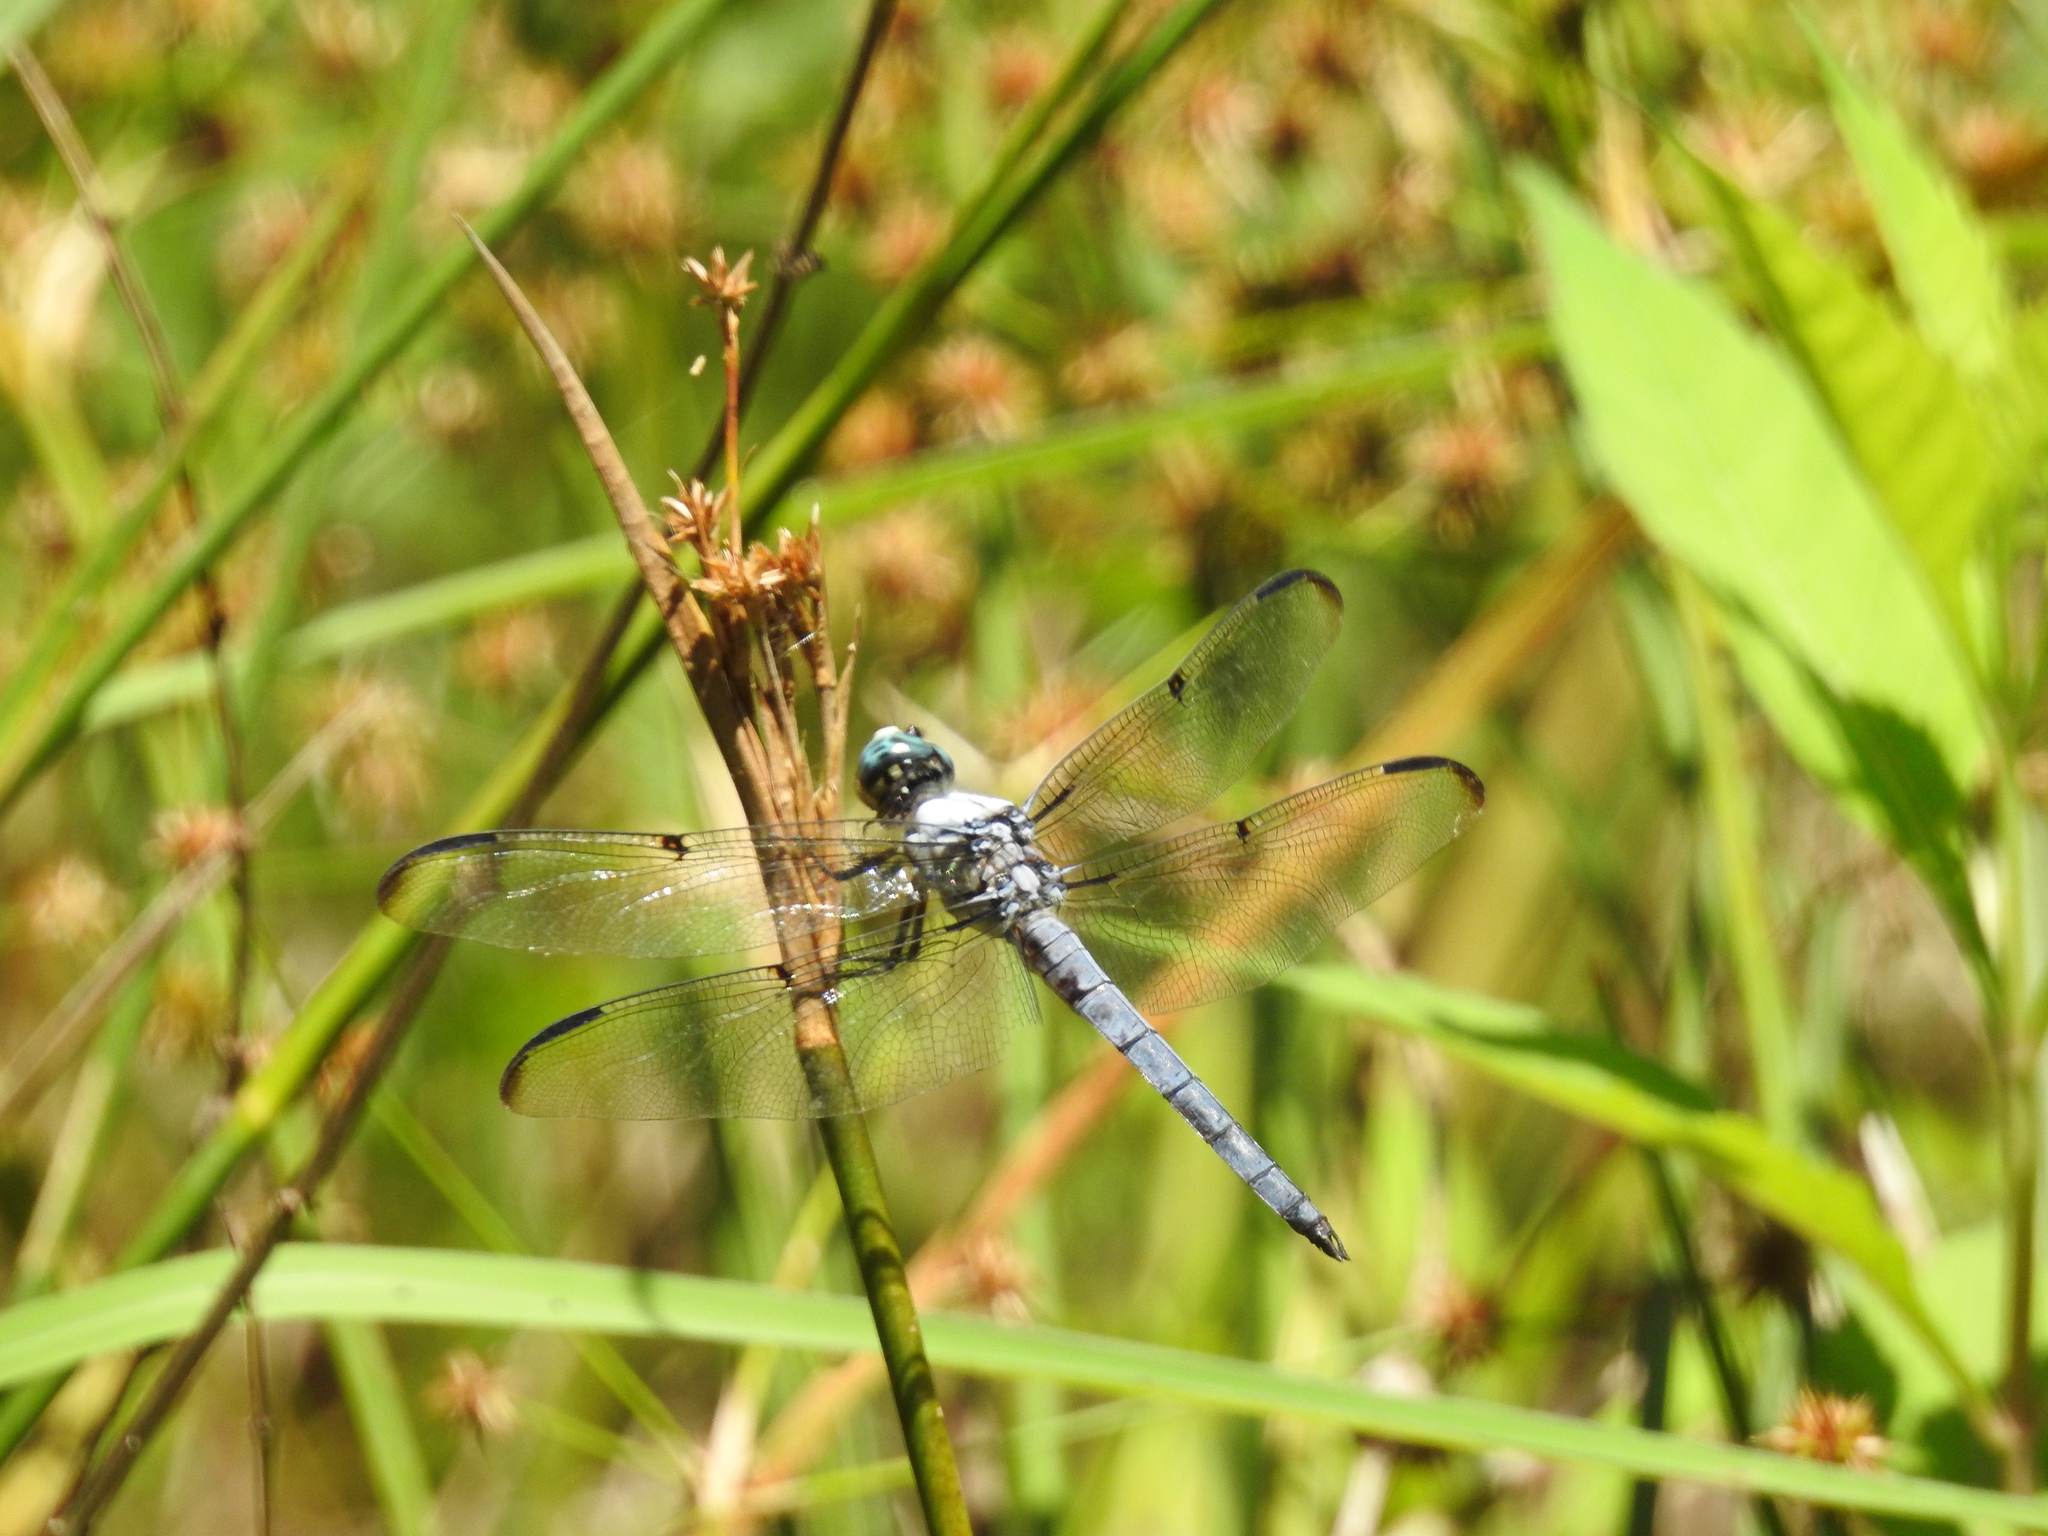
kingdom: Animalia
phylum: Arthropoda
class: Insecta
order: Odonata
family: Libellulidae
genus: Libellula
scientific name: Libellula vibrans
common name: Great blue skimmer
